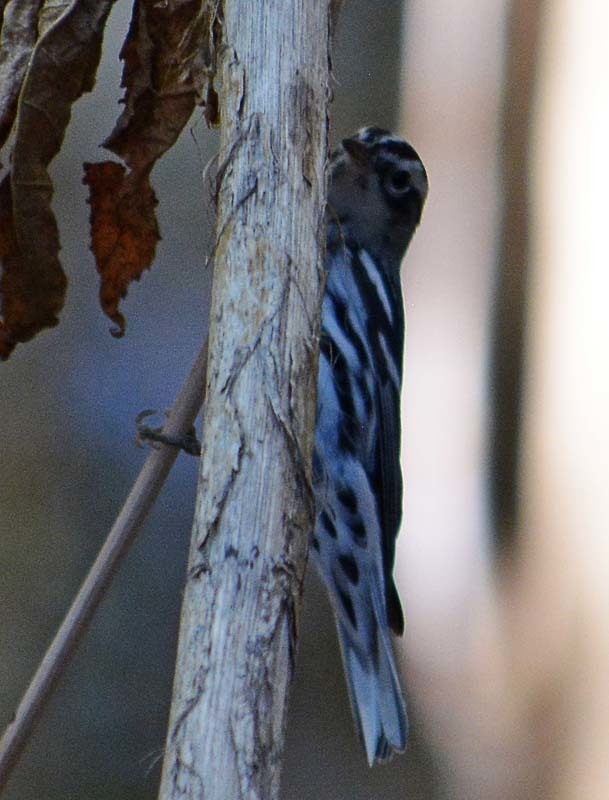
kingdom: Animalia
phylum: Chordata
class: Aves
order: Passeriformes
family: Parulidae
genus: Mniotilta
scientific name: Mniotilta varia
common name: Black-and-white warbler
